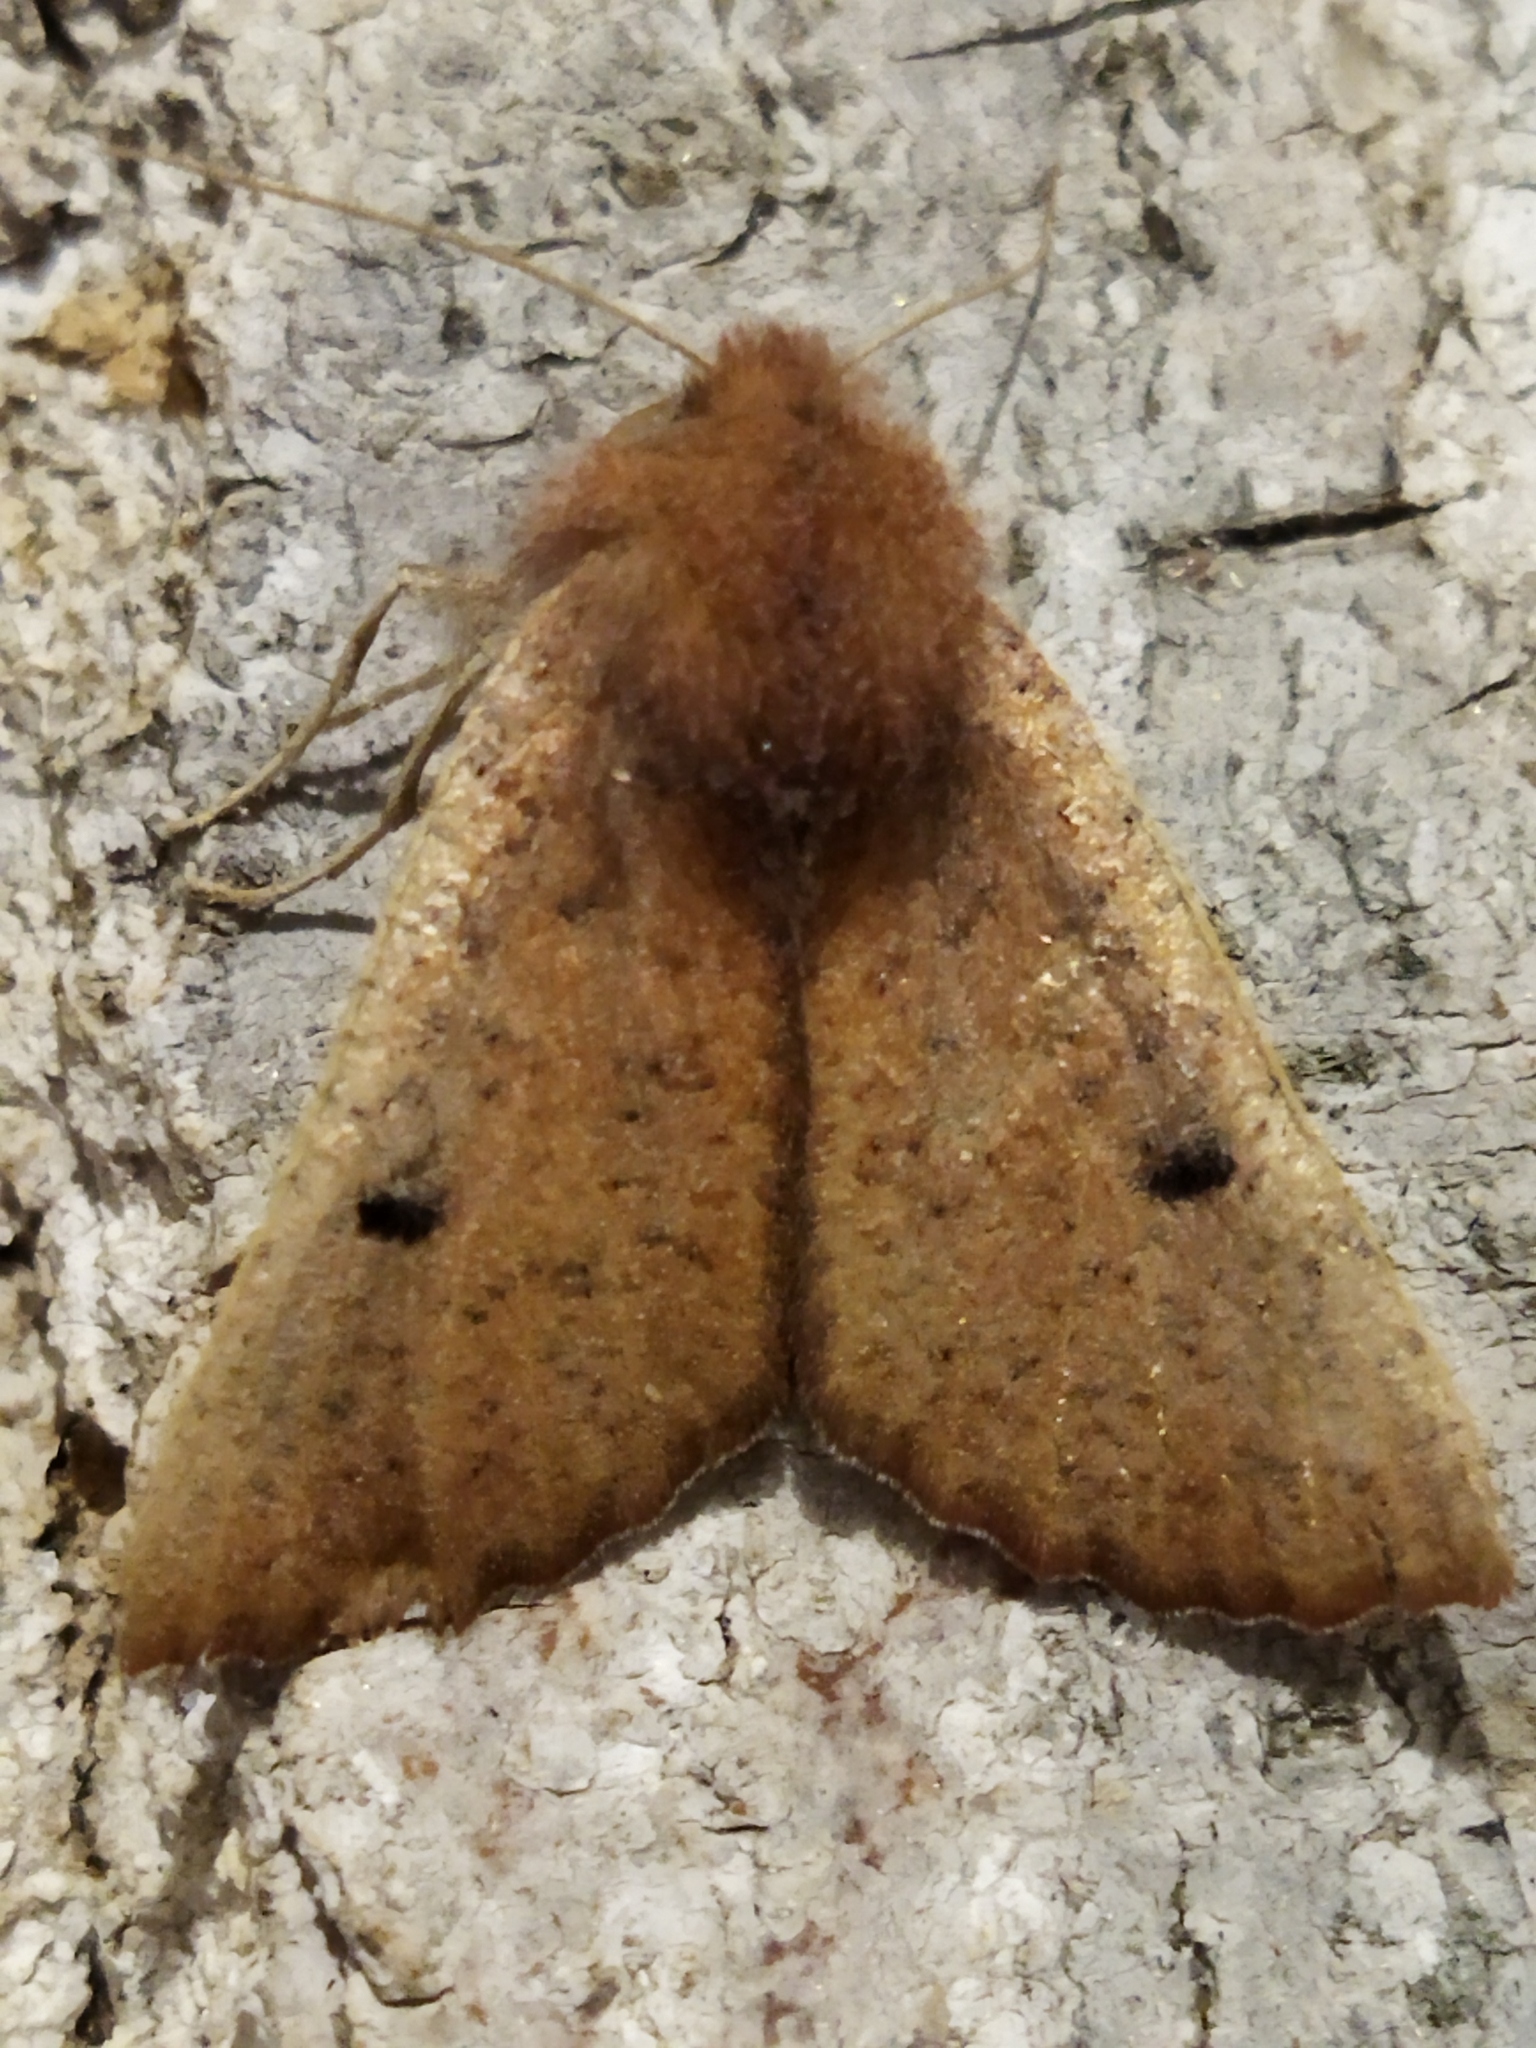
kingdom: Animalia
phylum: Arthropoda
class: Insecta
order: Lepidoptera
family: Geometridae
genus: Dasycorsa
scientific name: Dasycorsa modesta
